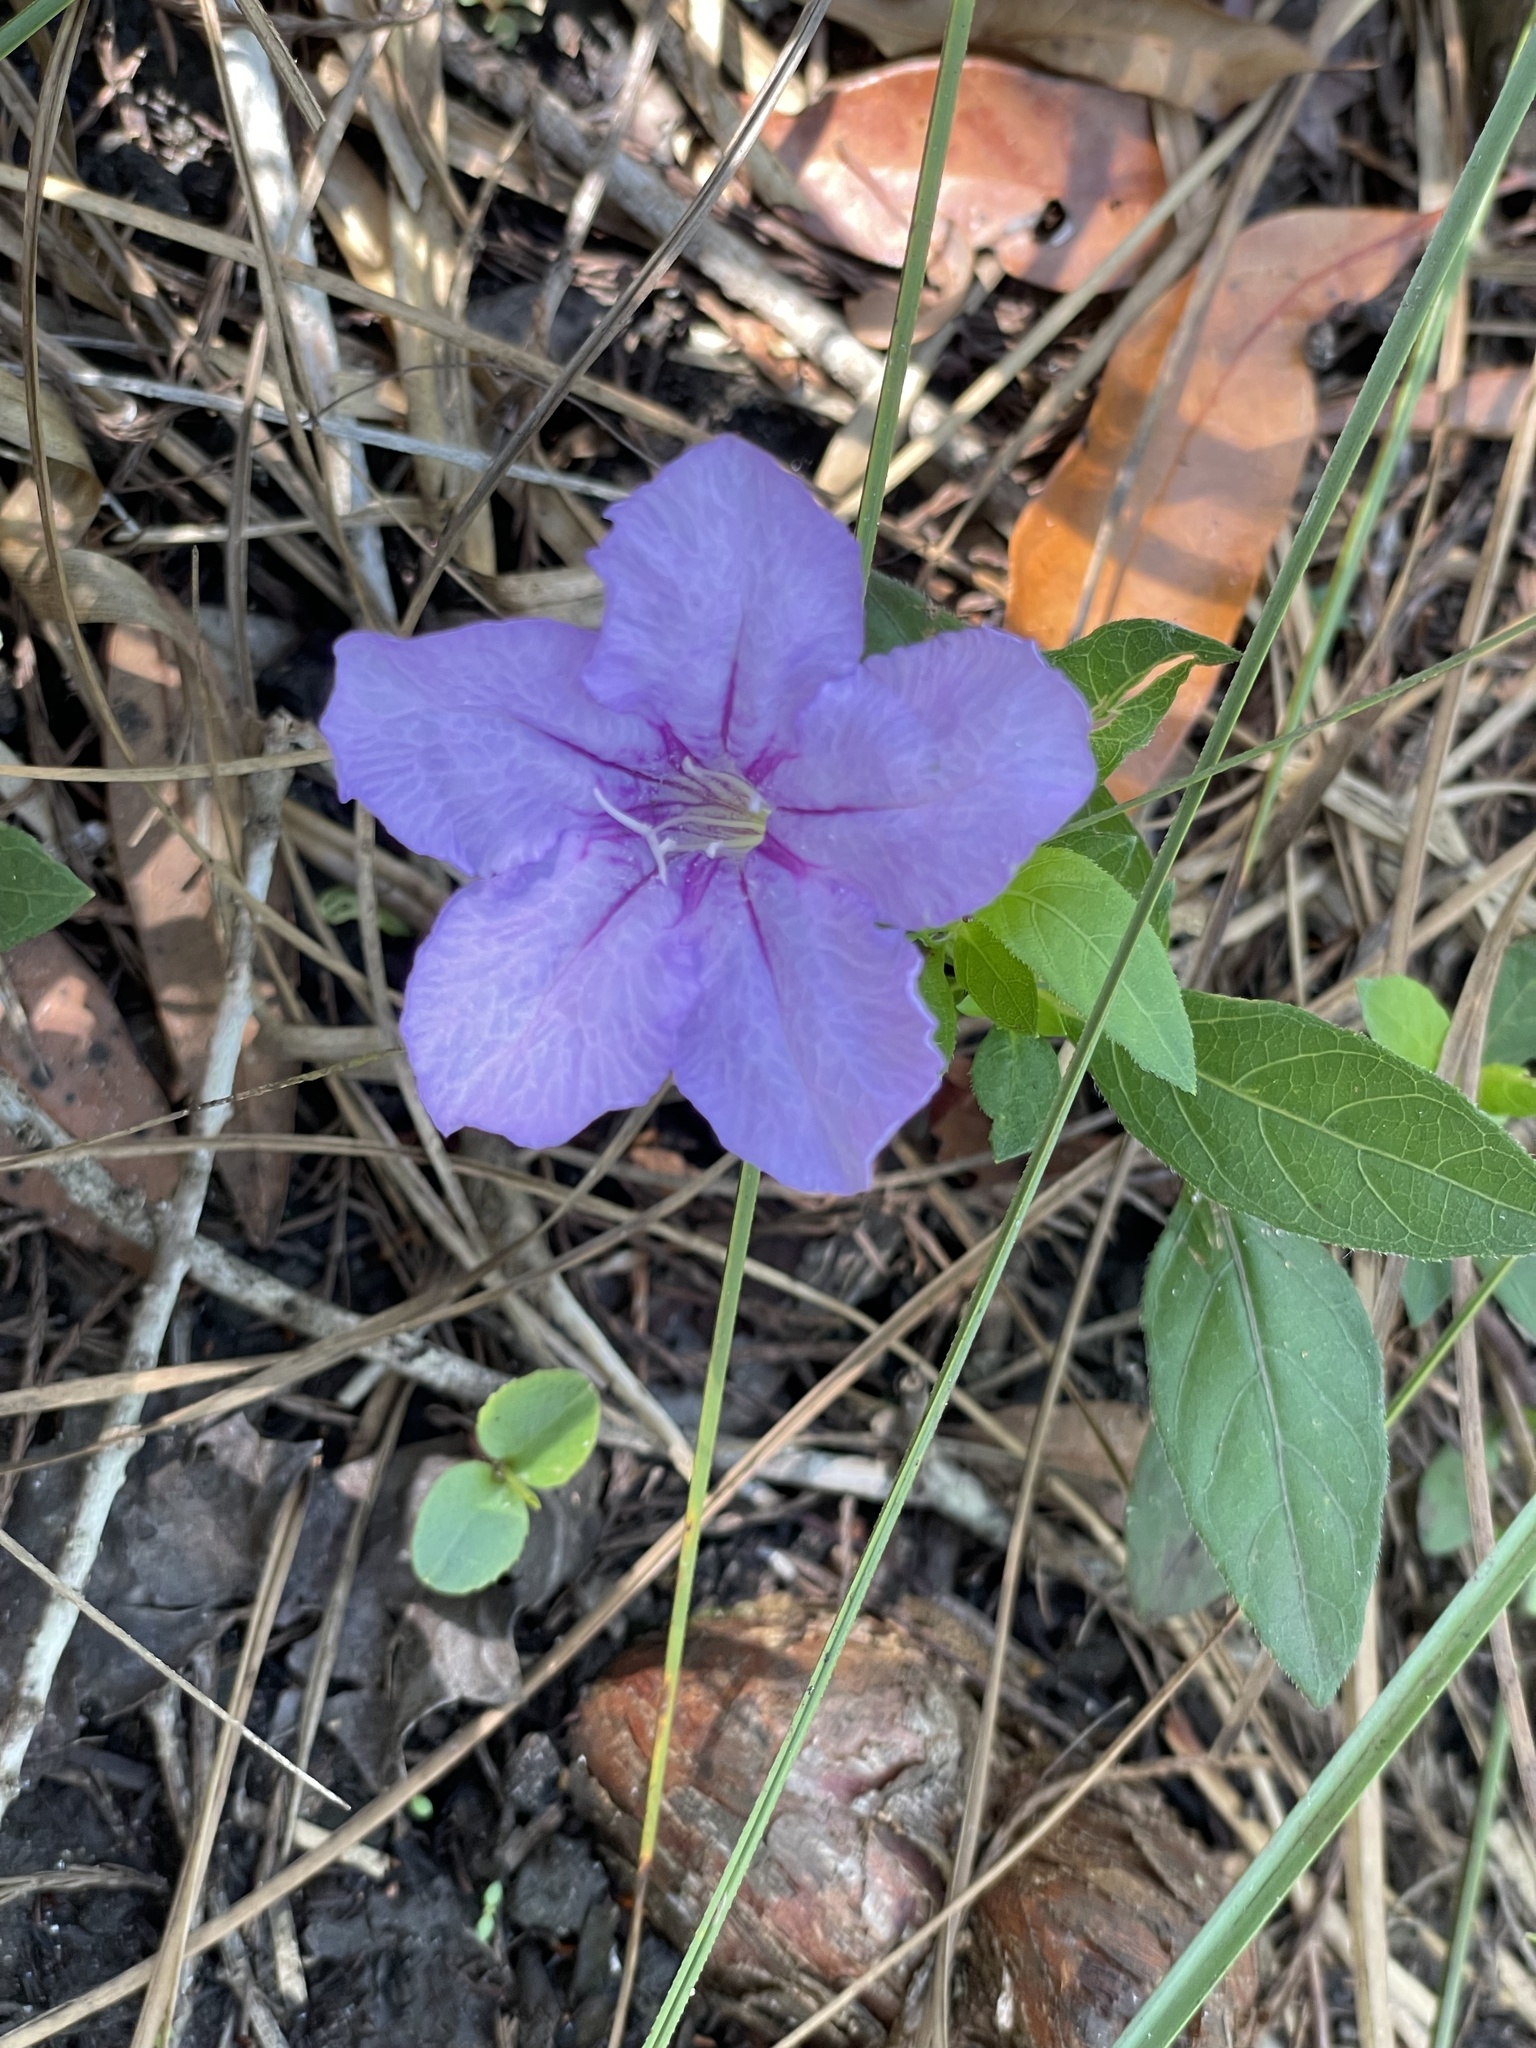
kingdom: Plantae
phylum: Tracheophyta
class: Magnoliopsida
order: Lamiales
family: Acanthaceae
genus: Ruellia
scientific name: Ruellia caroliniensis
